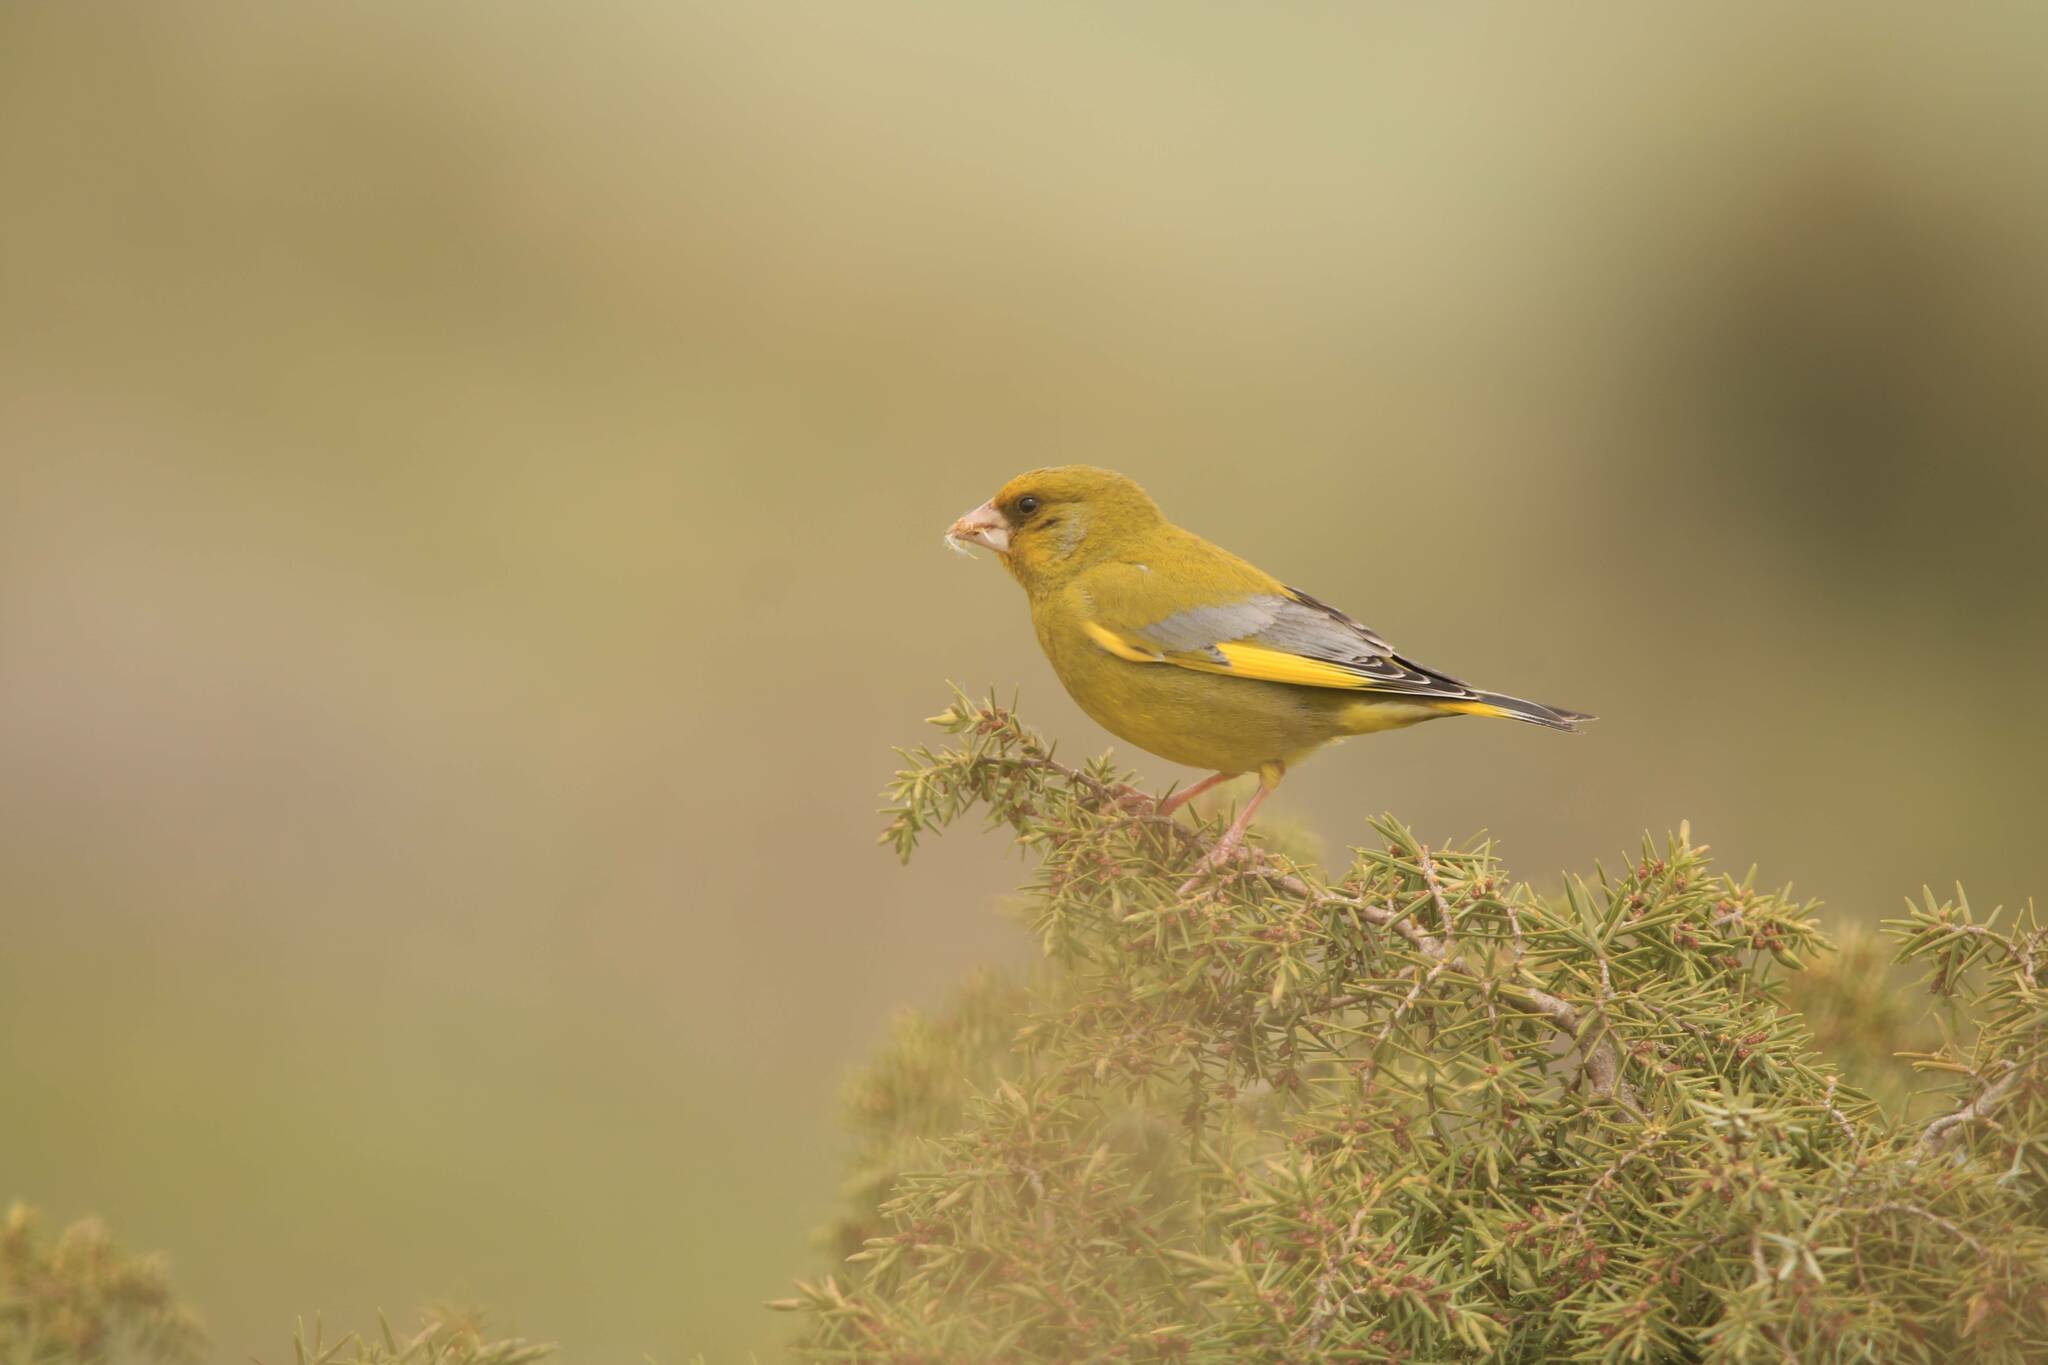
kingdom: Plantae
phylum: Tracheophyta
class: Liliopsida
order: Poales
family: Poaceae
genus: Chloris
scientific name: Chloris chloris
